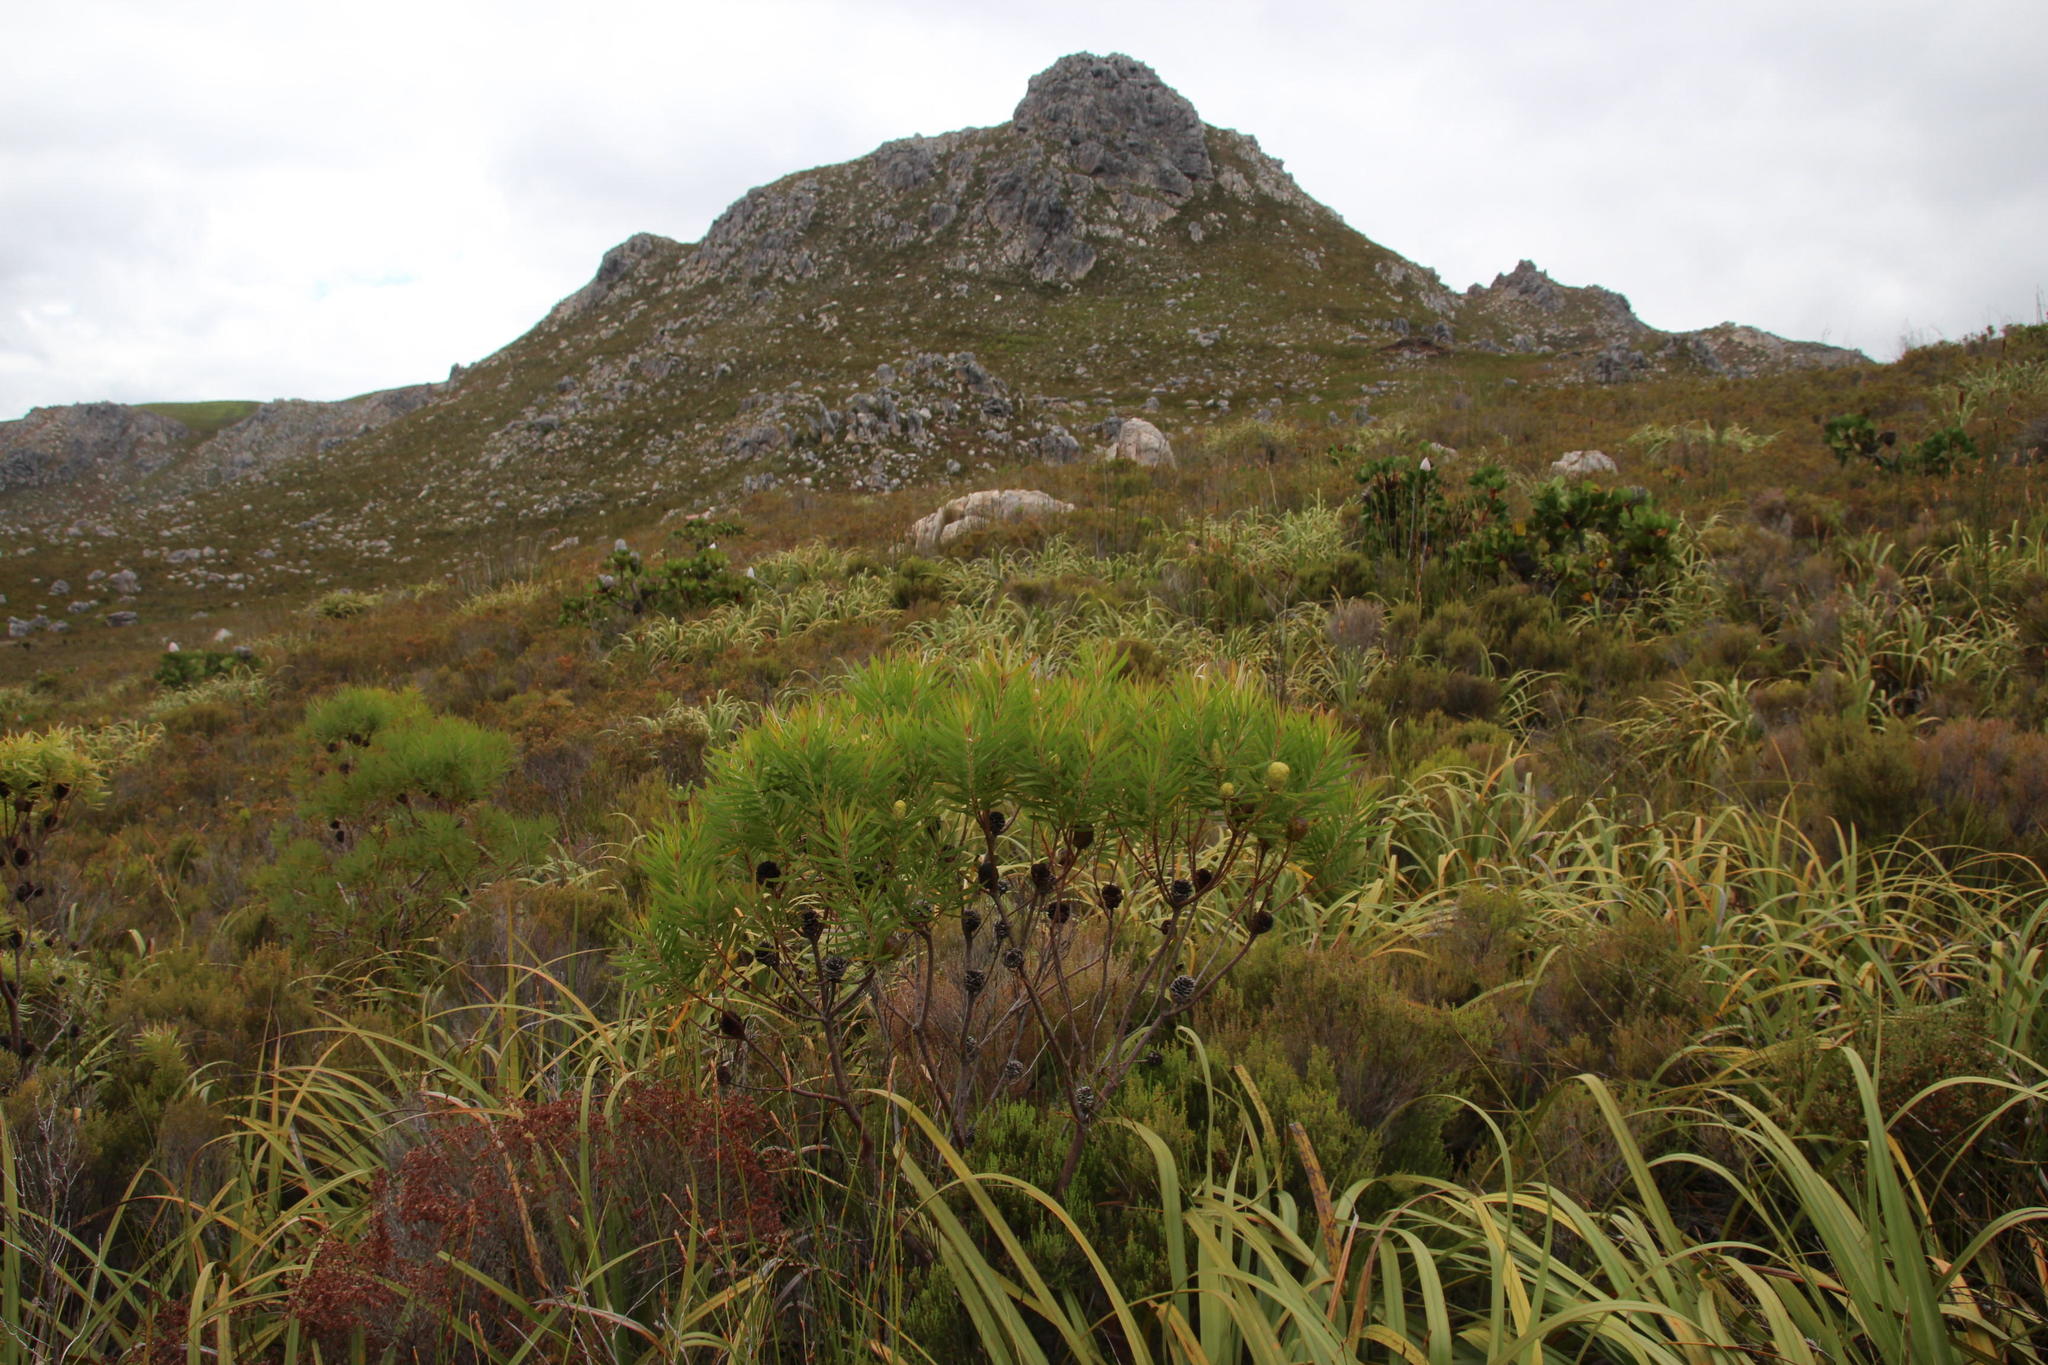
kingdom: Plantae
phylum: Tracheophyta
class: Magnoliopsida
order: Proteales
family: Proteaceae
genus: Leucadendron
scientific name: Leucadendron salicifolium
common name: Common stream conebush
